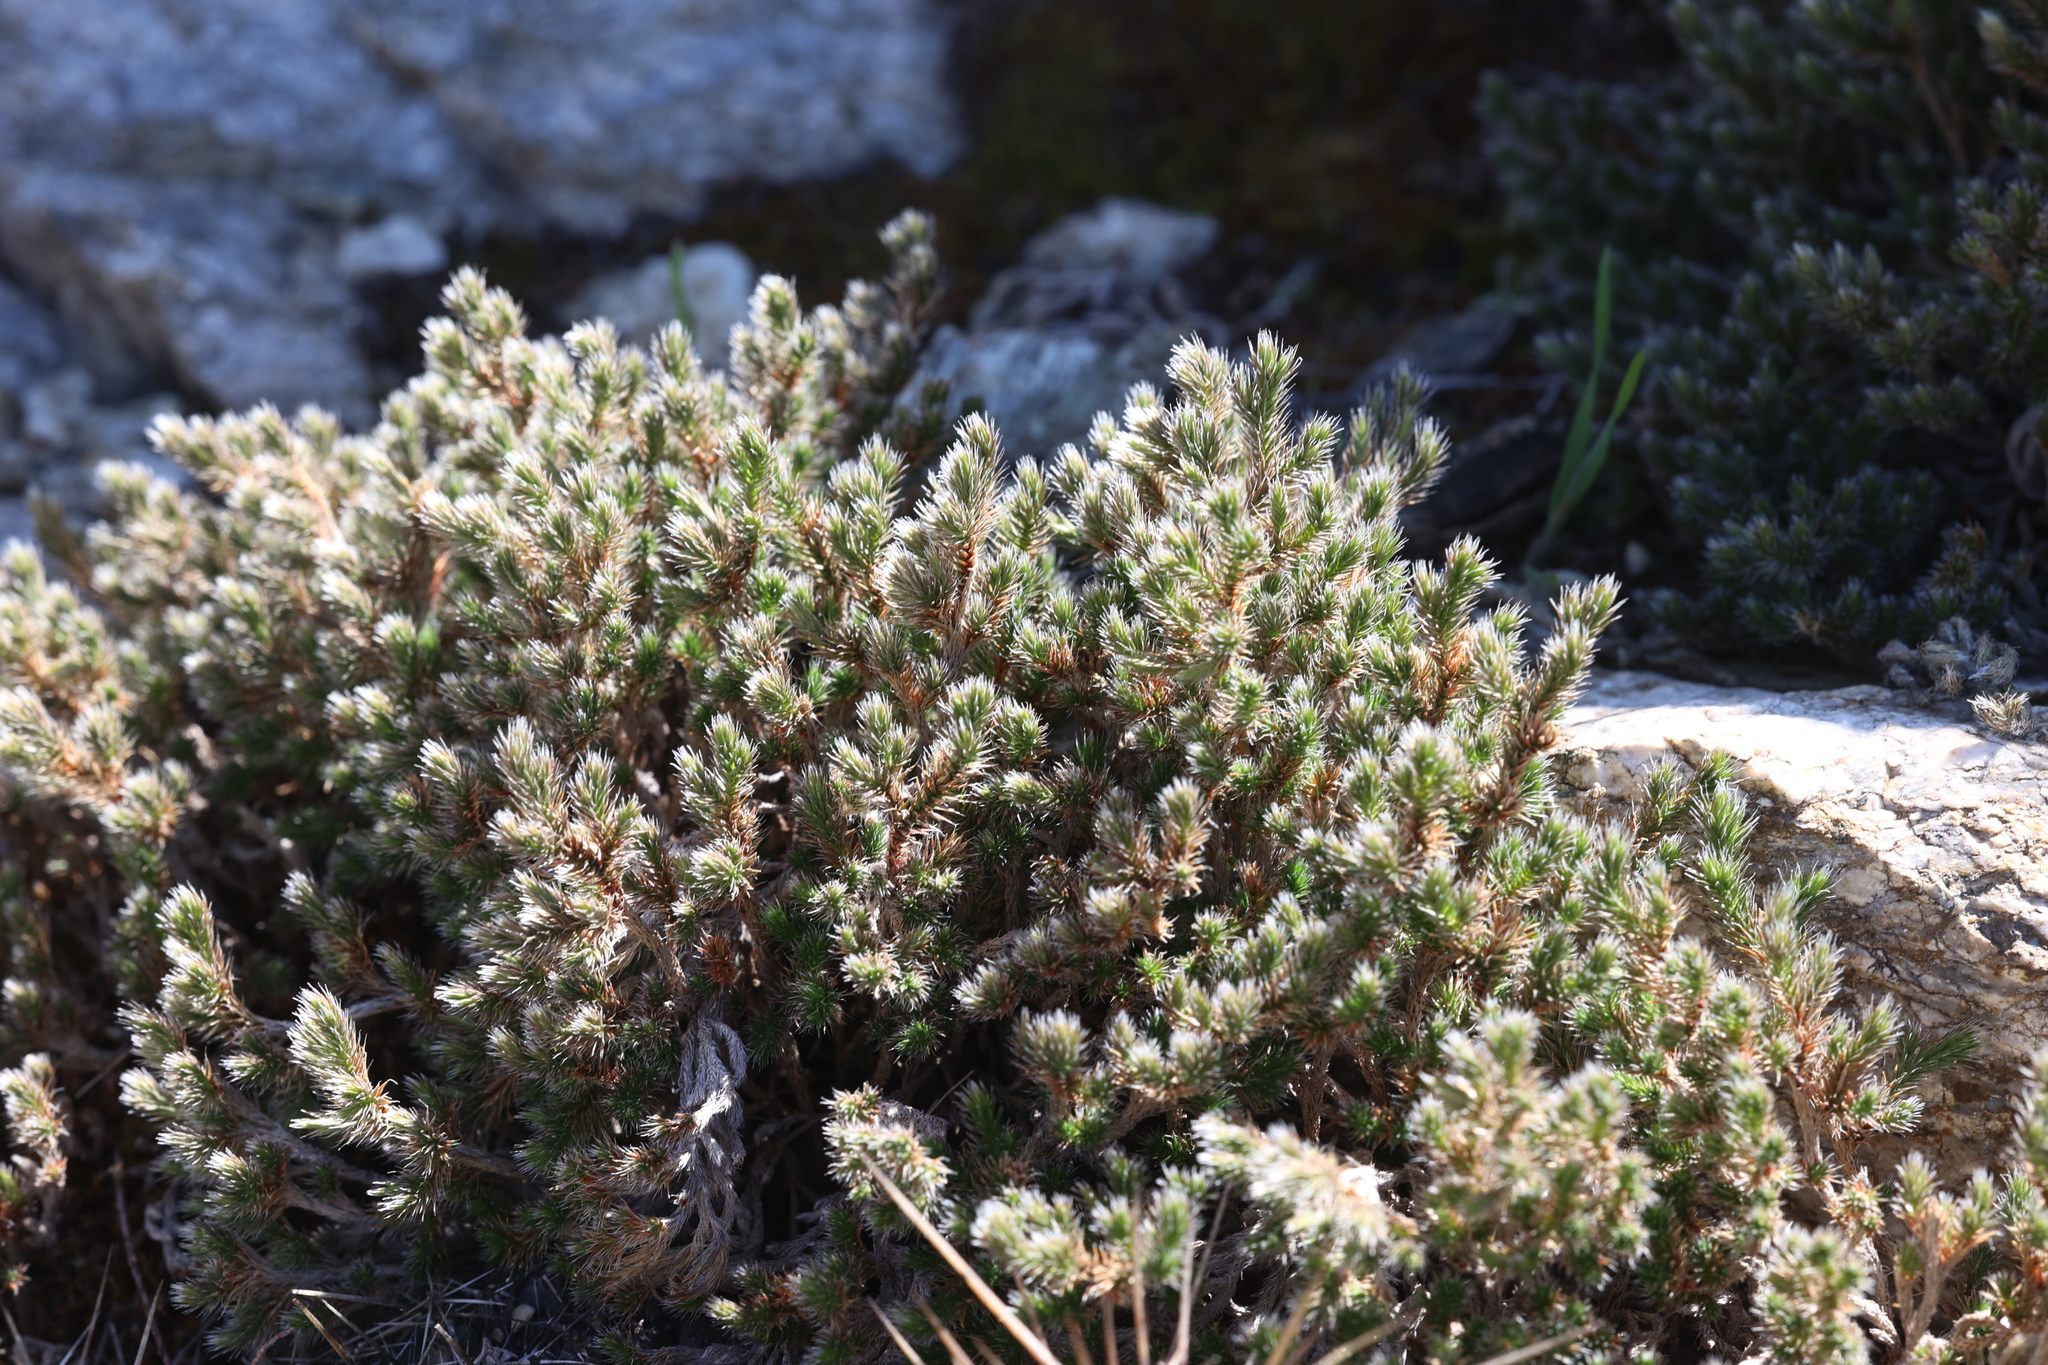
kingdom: Plantae
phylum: Tracheophyta
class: Lycopodiopsida
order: Selaginellales
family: Selaginellaceae
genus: Selaginella
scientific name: Selaginella rupincola
